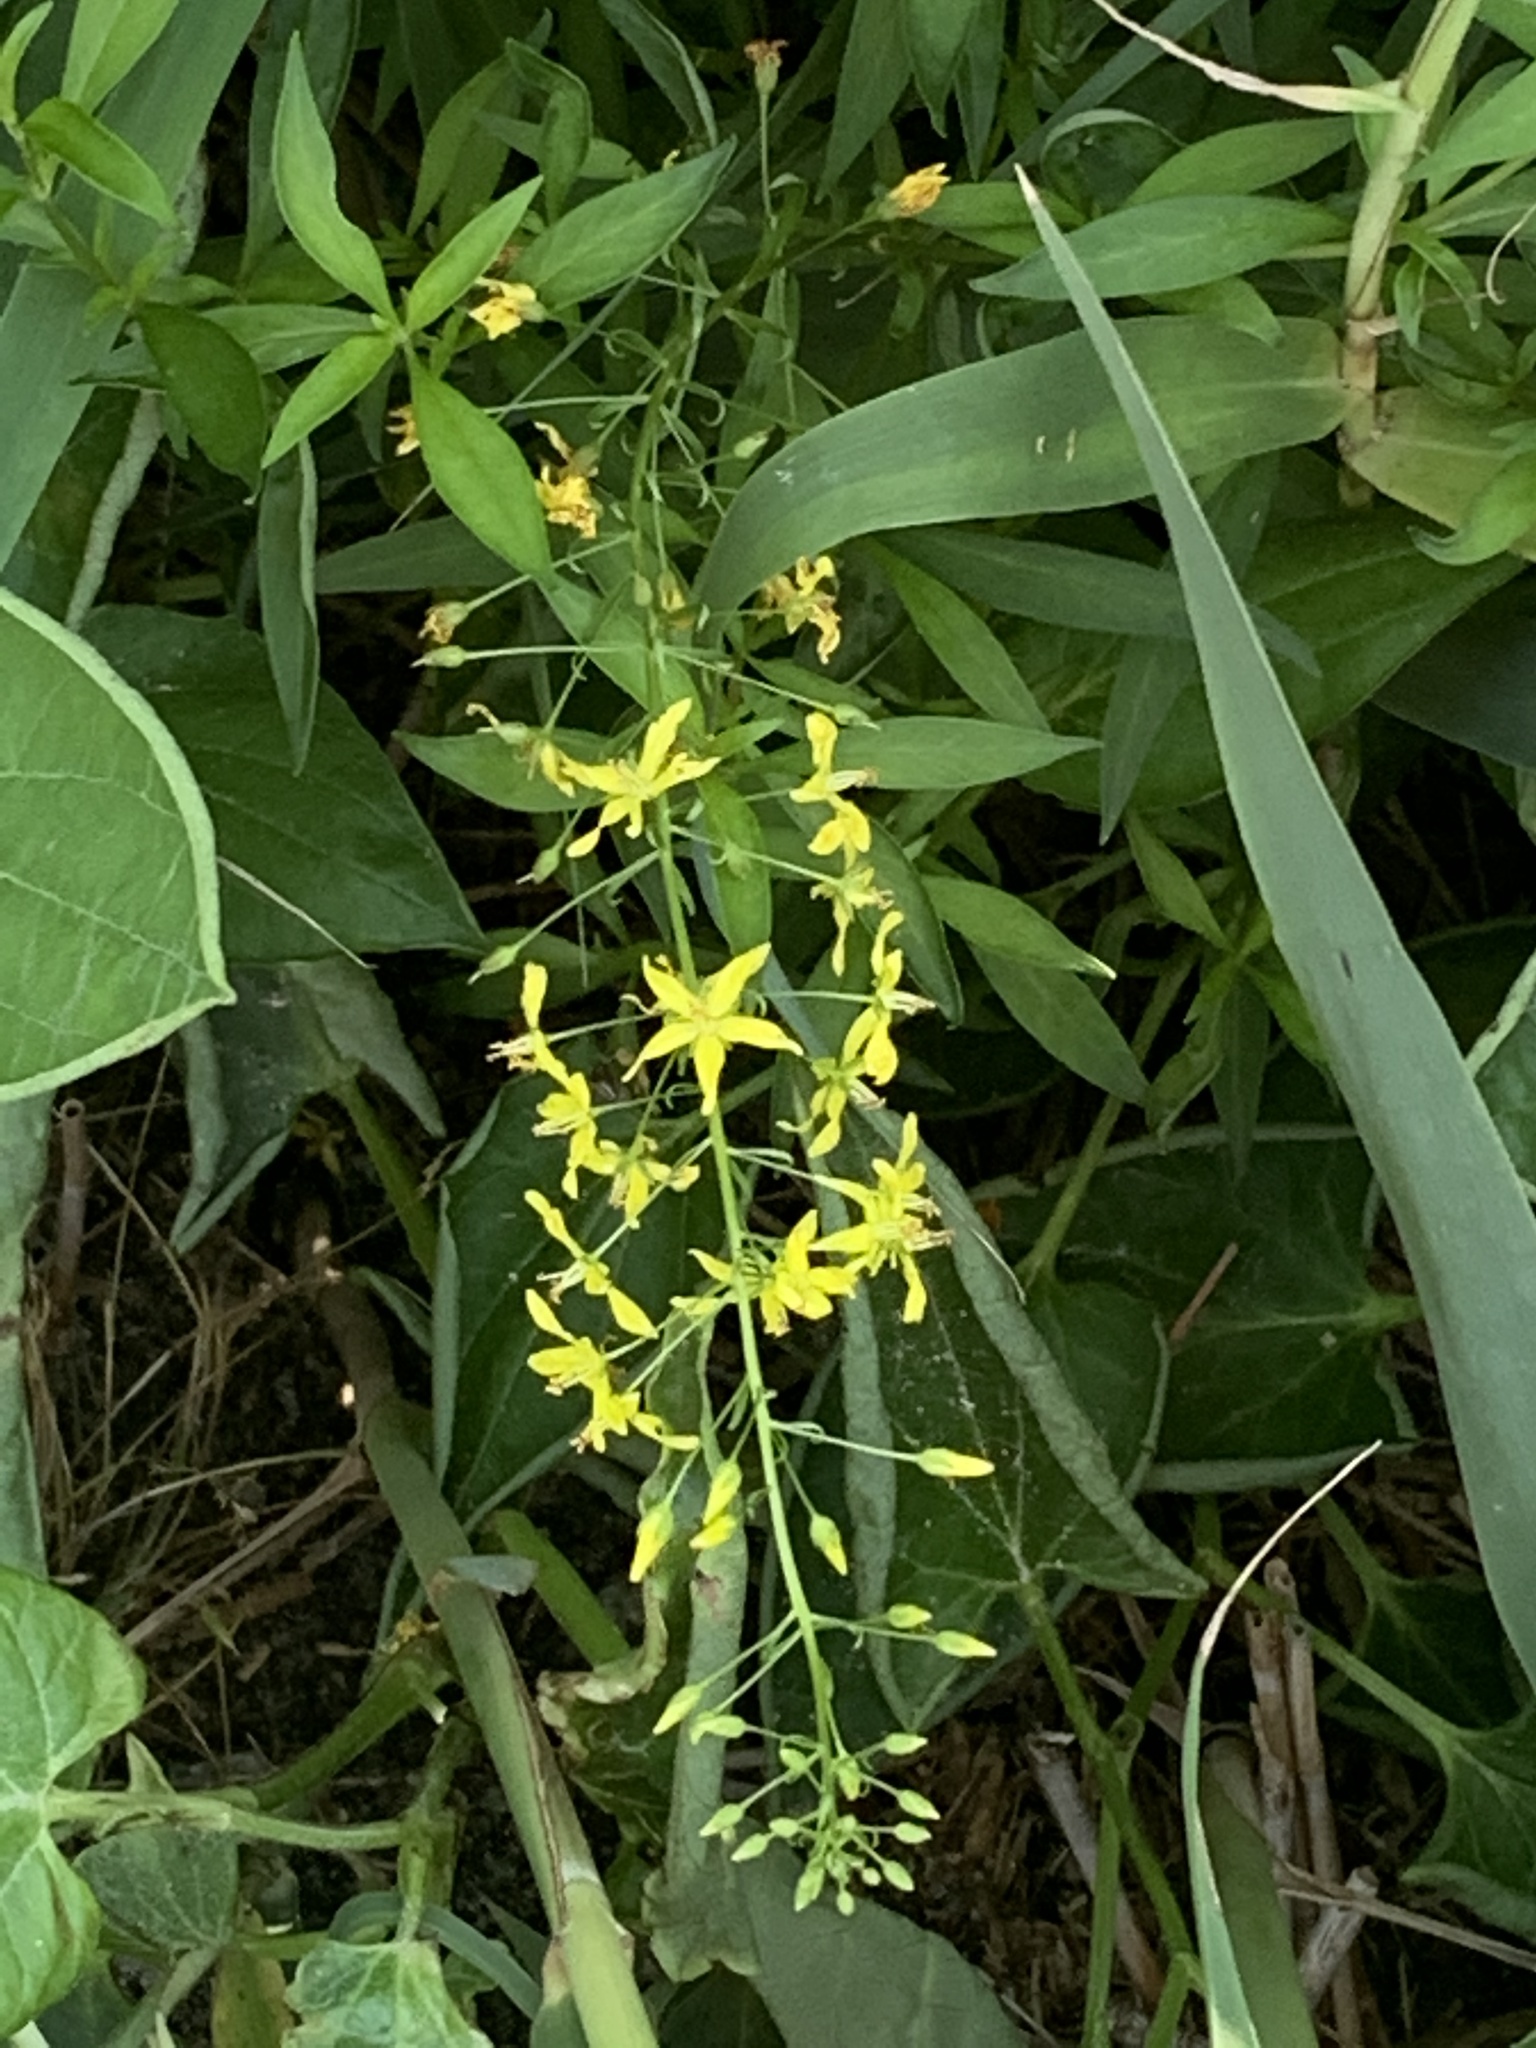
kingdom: Plantae
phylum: Tracheophyta
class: Magnoliopsida
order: Ericales
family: Primulaceae
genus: Lysimachia
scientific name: Lysimachia terrestris
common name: Lake loosestrife
